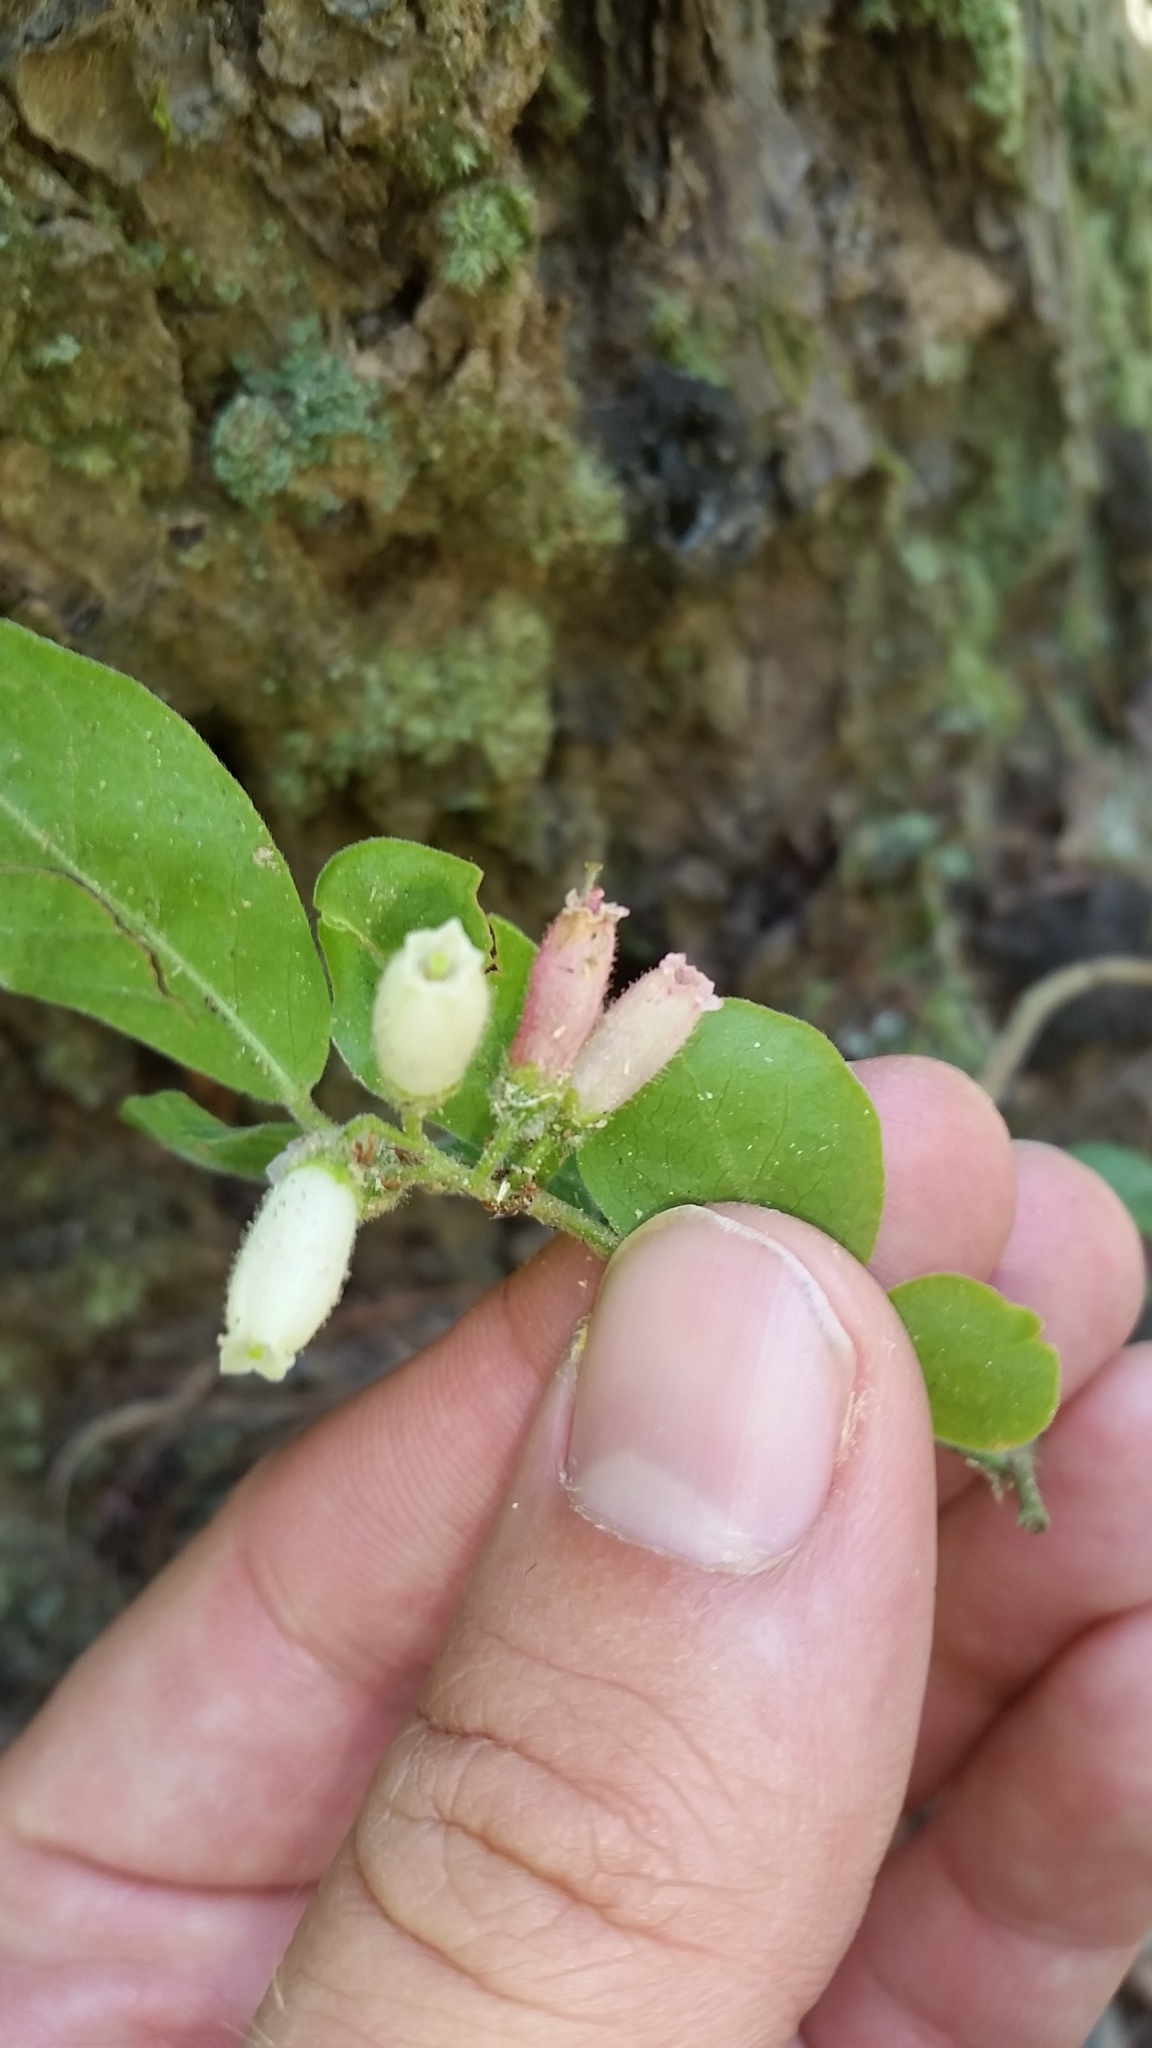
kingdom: Plantae
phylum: Tracheophyta
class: Magnoliopsida
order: Ericales
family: Ericaceae
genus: Vaccinium
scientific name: Vaccinium hirsutum
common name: Woolly-berry
